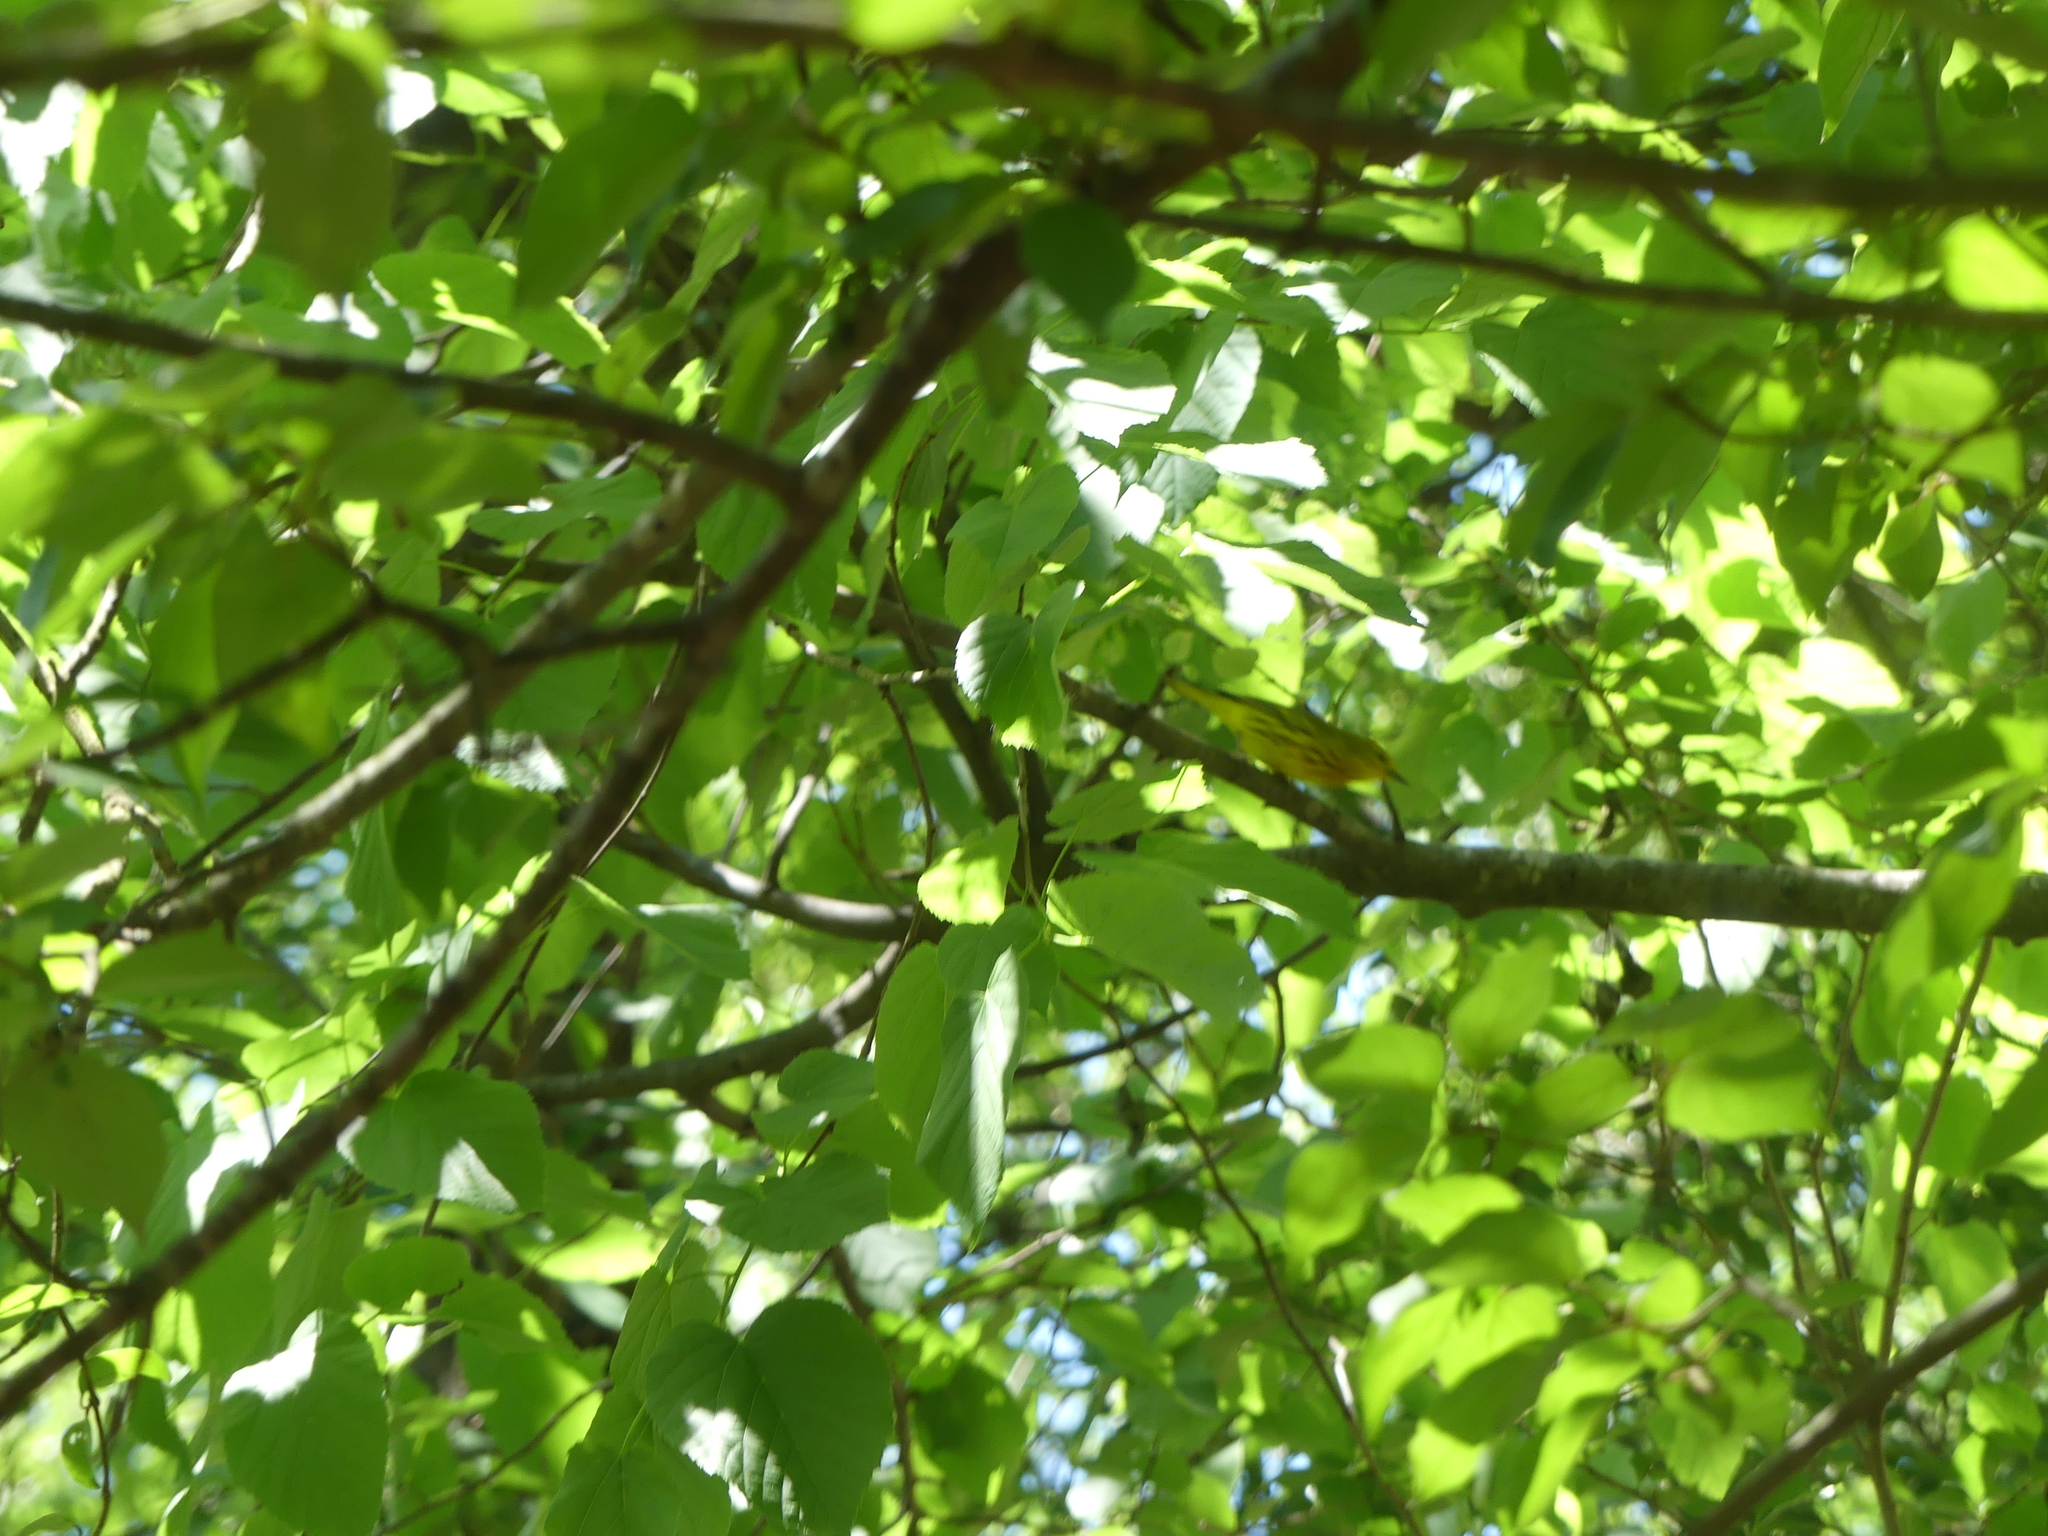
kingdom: Animalia
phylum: Chordata
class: Aves
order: Passeriformes
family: Parulidae
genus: Setophaga
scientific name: Setophaga petechia
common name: Yellow warbler
